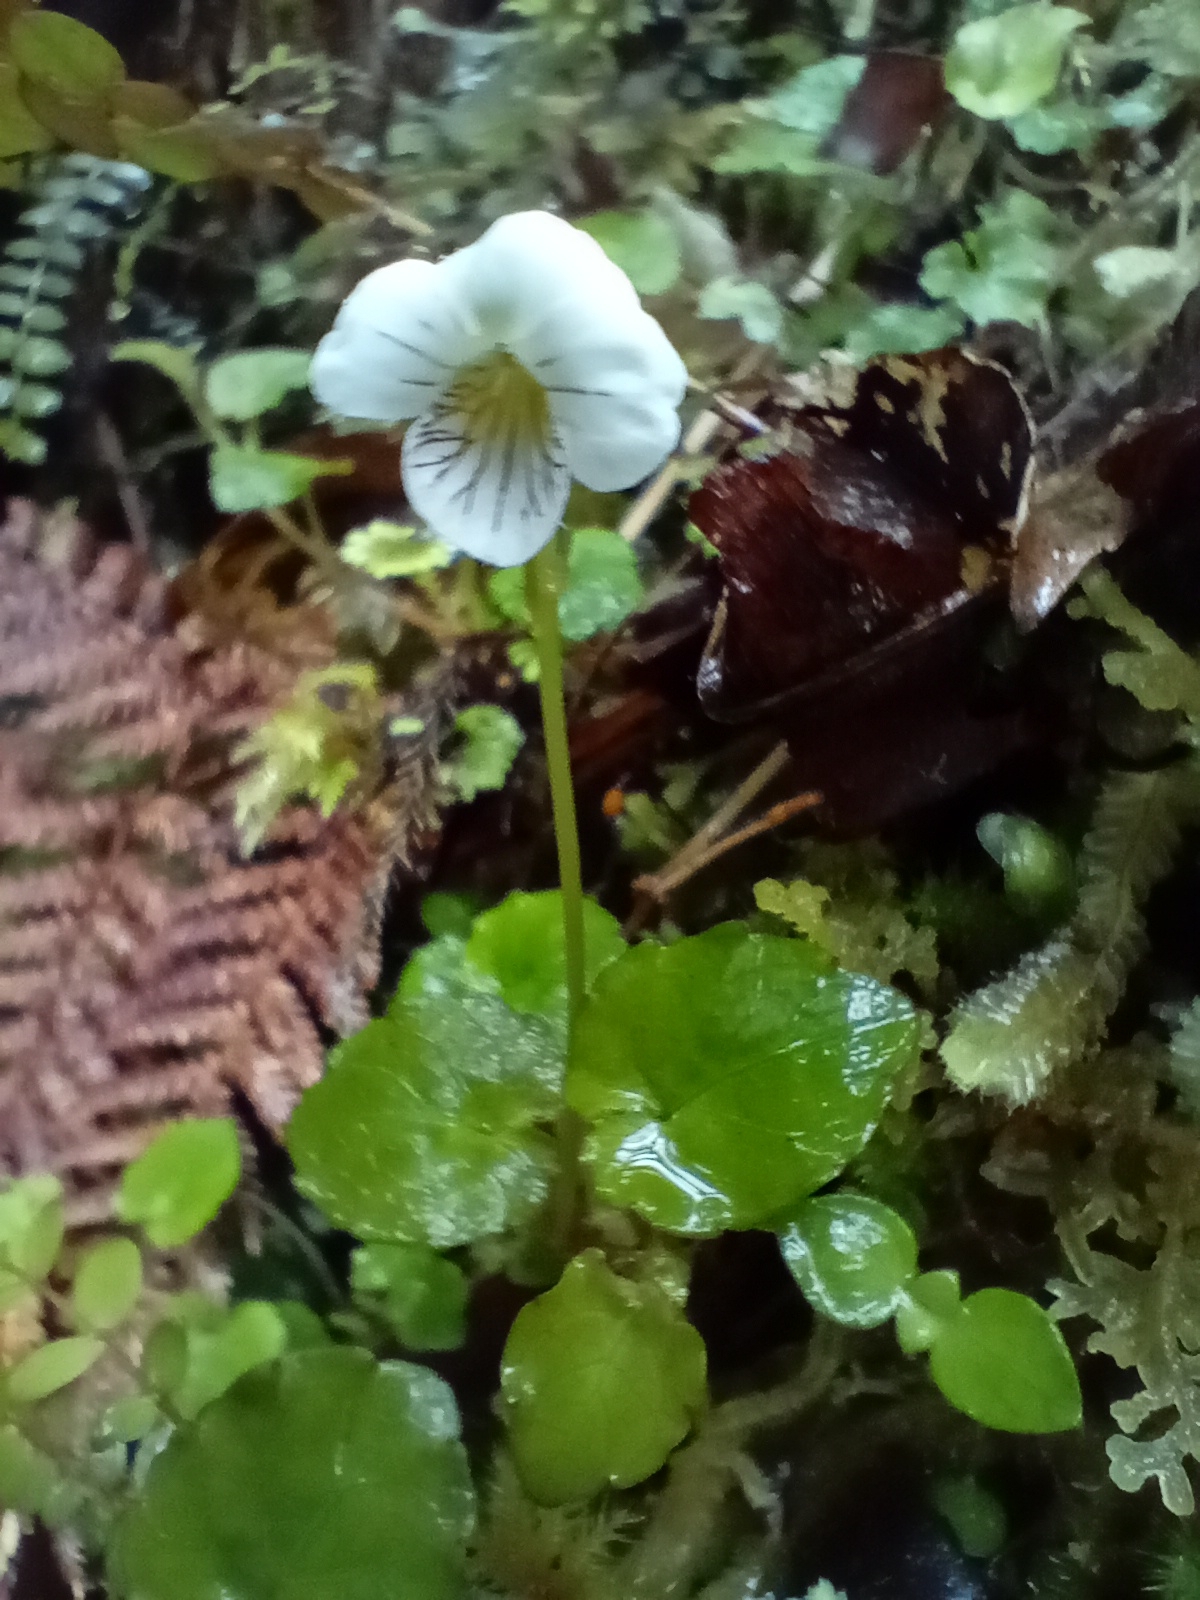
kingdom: Plantae
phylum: Tracheophyta
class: Magnoliopsida
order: Malpighiales
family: Violaceae
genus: Viola
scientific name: Viola filicaulis
